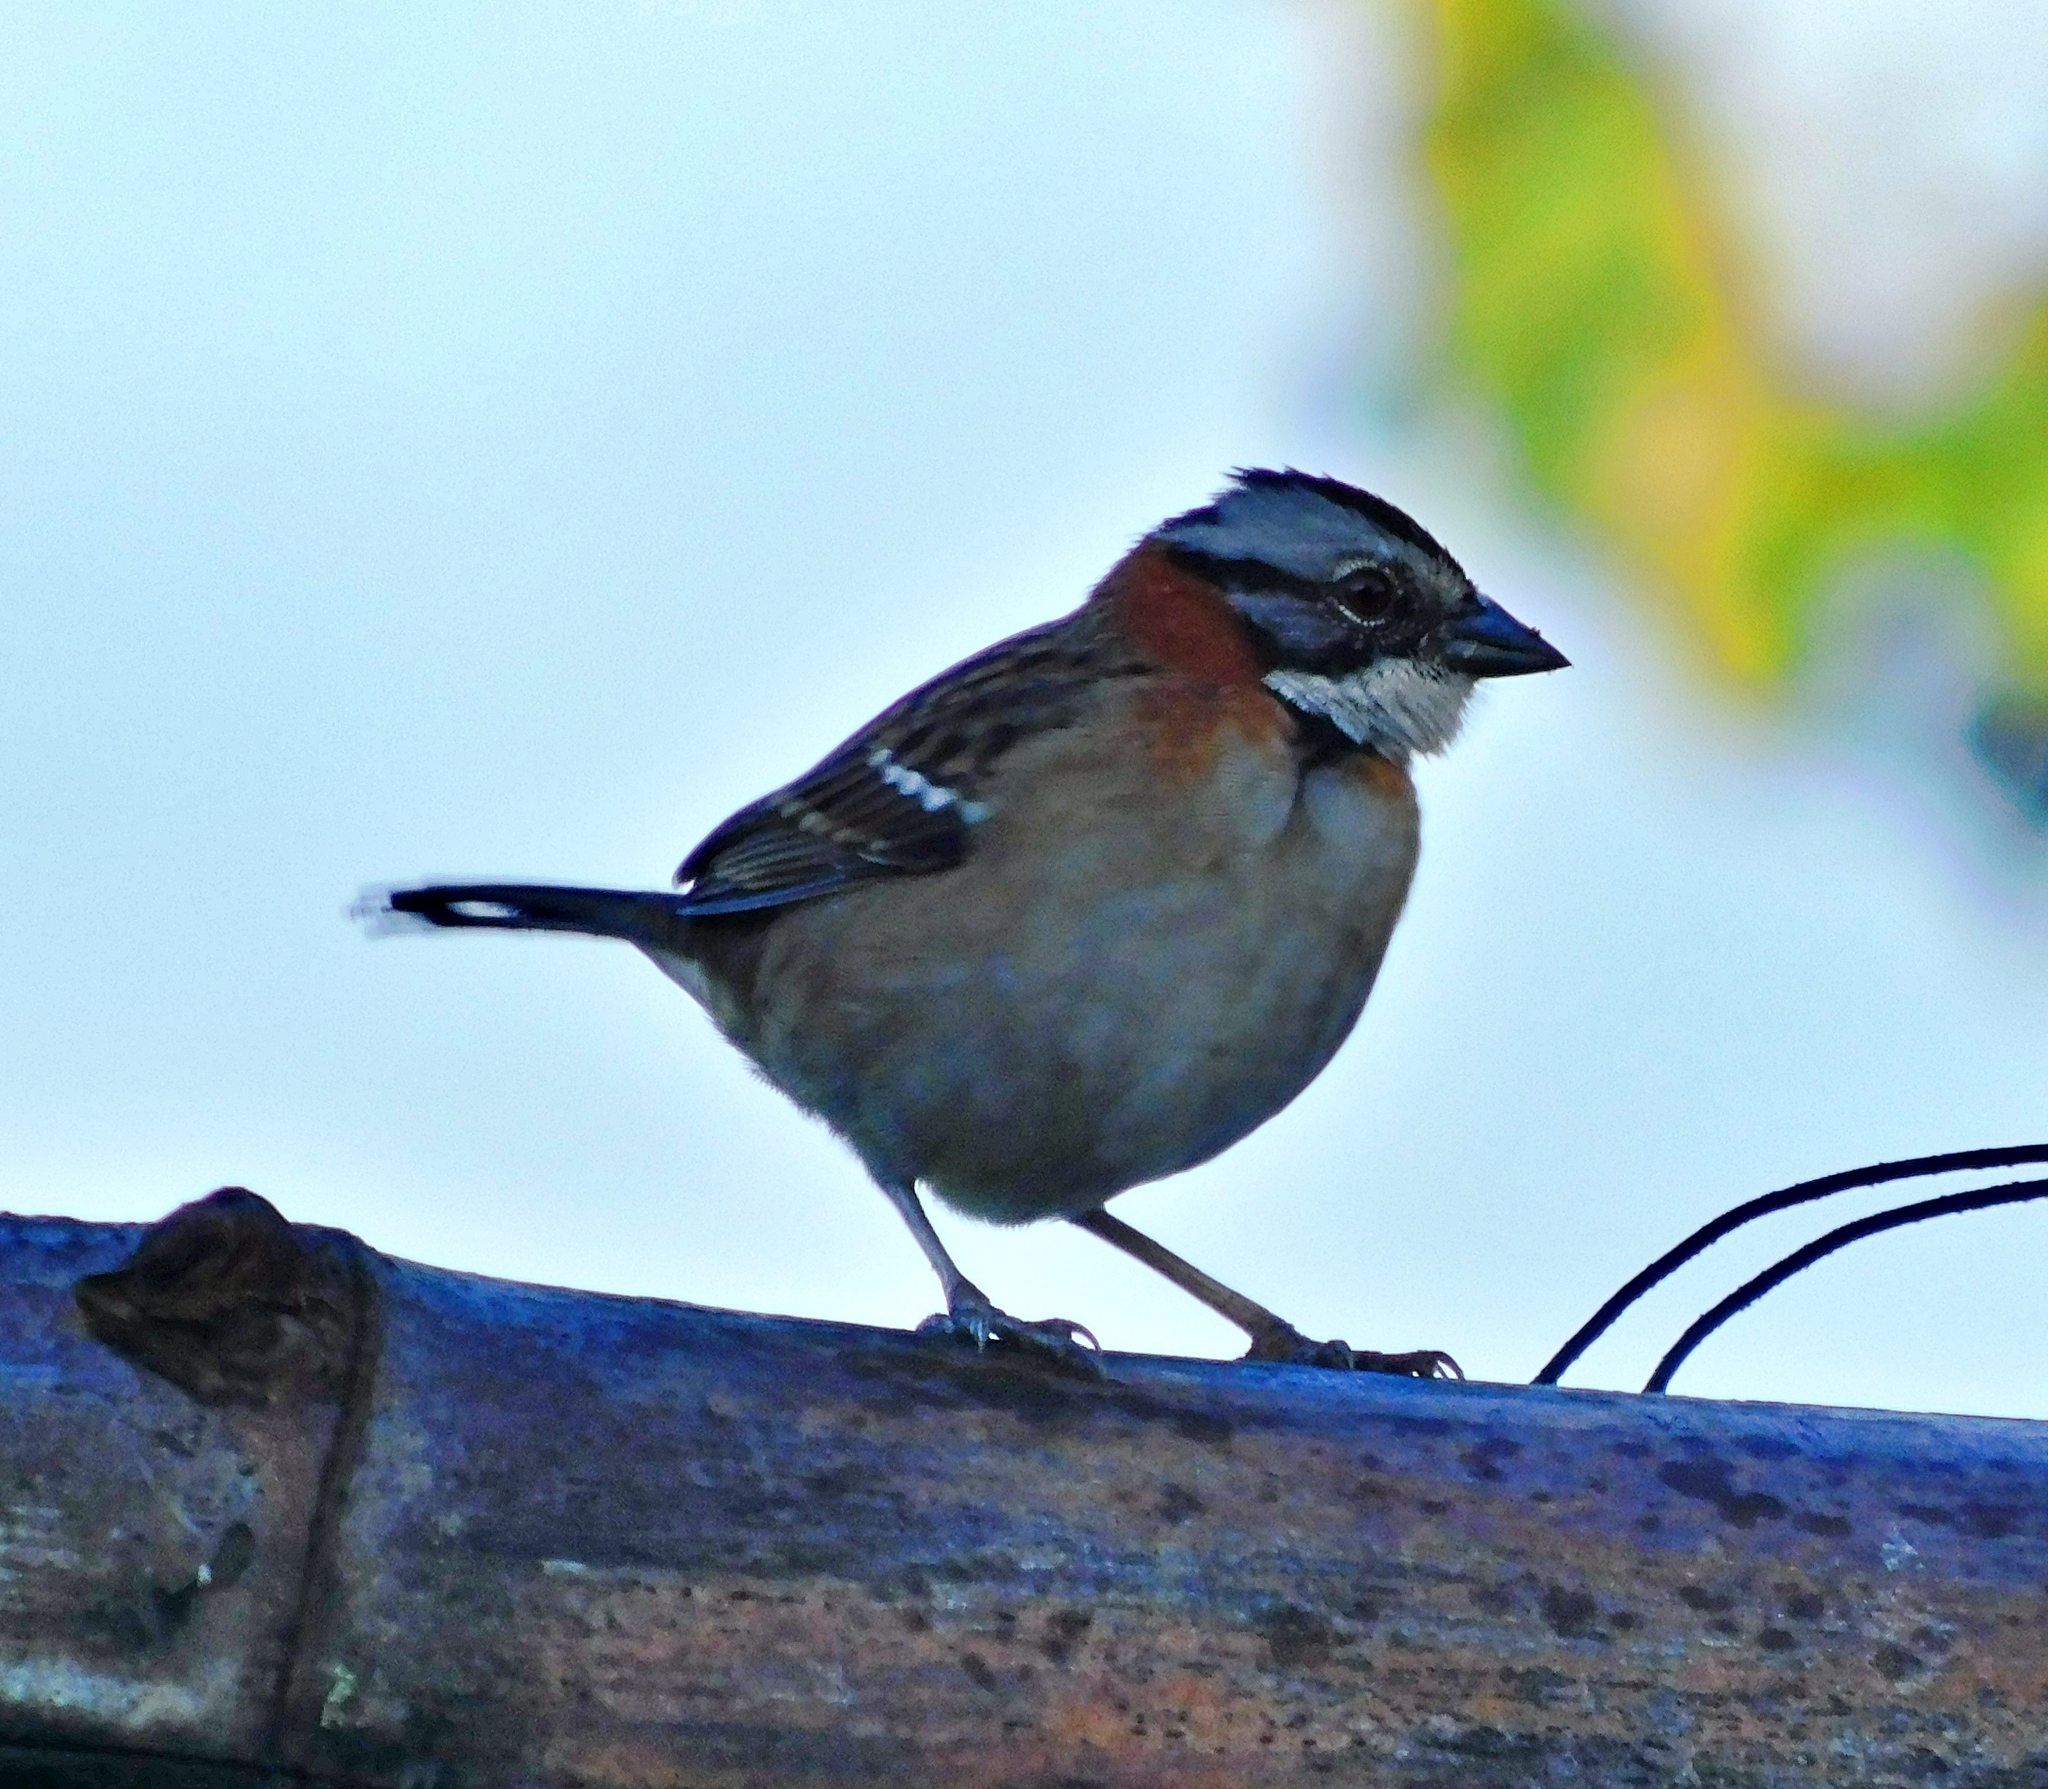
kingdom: Animalia
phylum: Chordata
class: Aves
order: Passeriformes
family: Passerellidae
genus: Zonotrichia
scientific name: Zonotrichia capensis
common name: Rufous-collared sparrow
